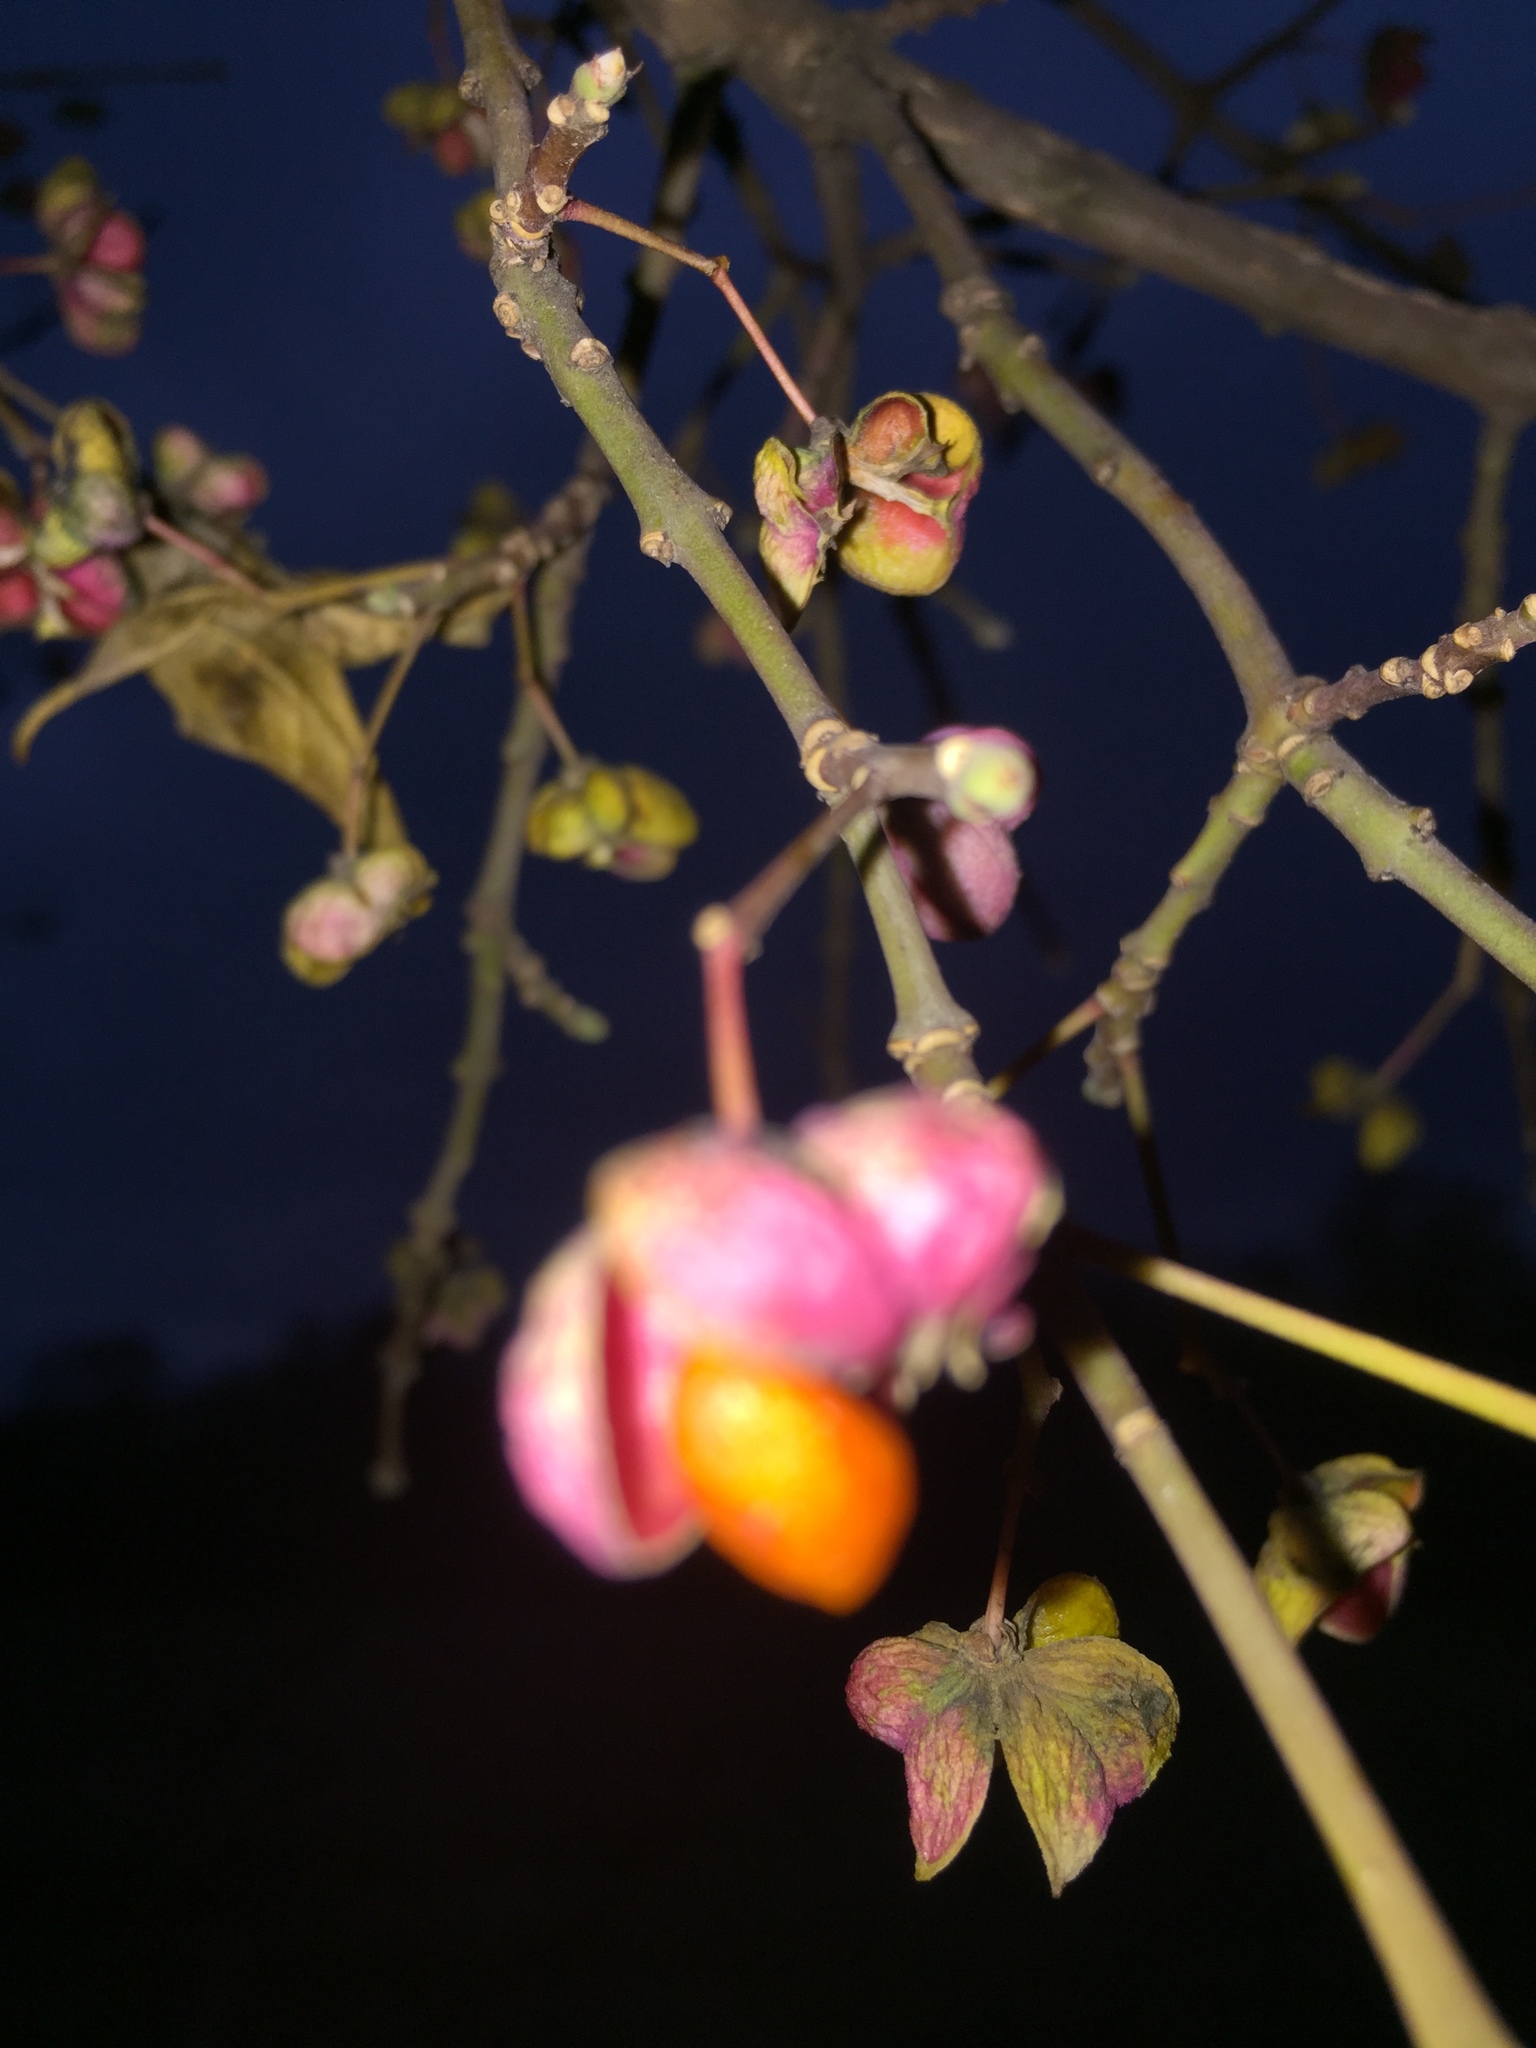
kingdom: Plantae
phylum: Tracheophyta
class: Magnoliopsida
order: Celastrales
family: Celastraceae
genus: Euonymus
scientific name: Euonymus europaeus
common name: Spindle
